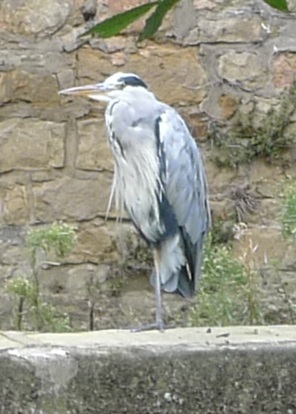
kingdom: Animalia
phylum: Chordata
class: Aves
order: Pelecaniformes
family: Ardeidae
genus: Ardea
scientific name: Ardea cinerea
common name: Grey heron
